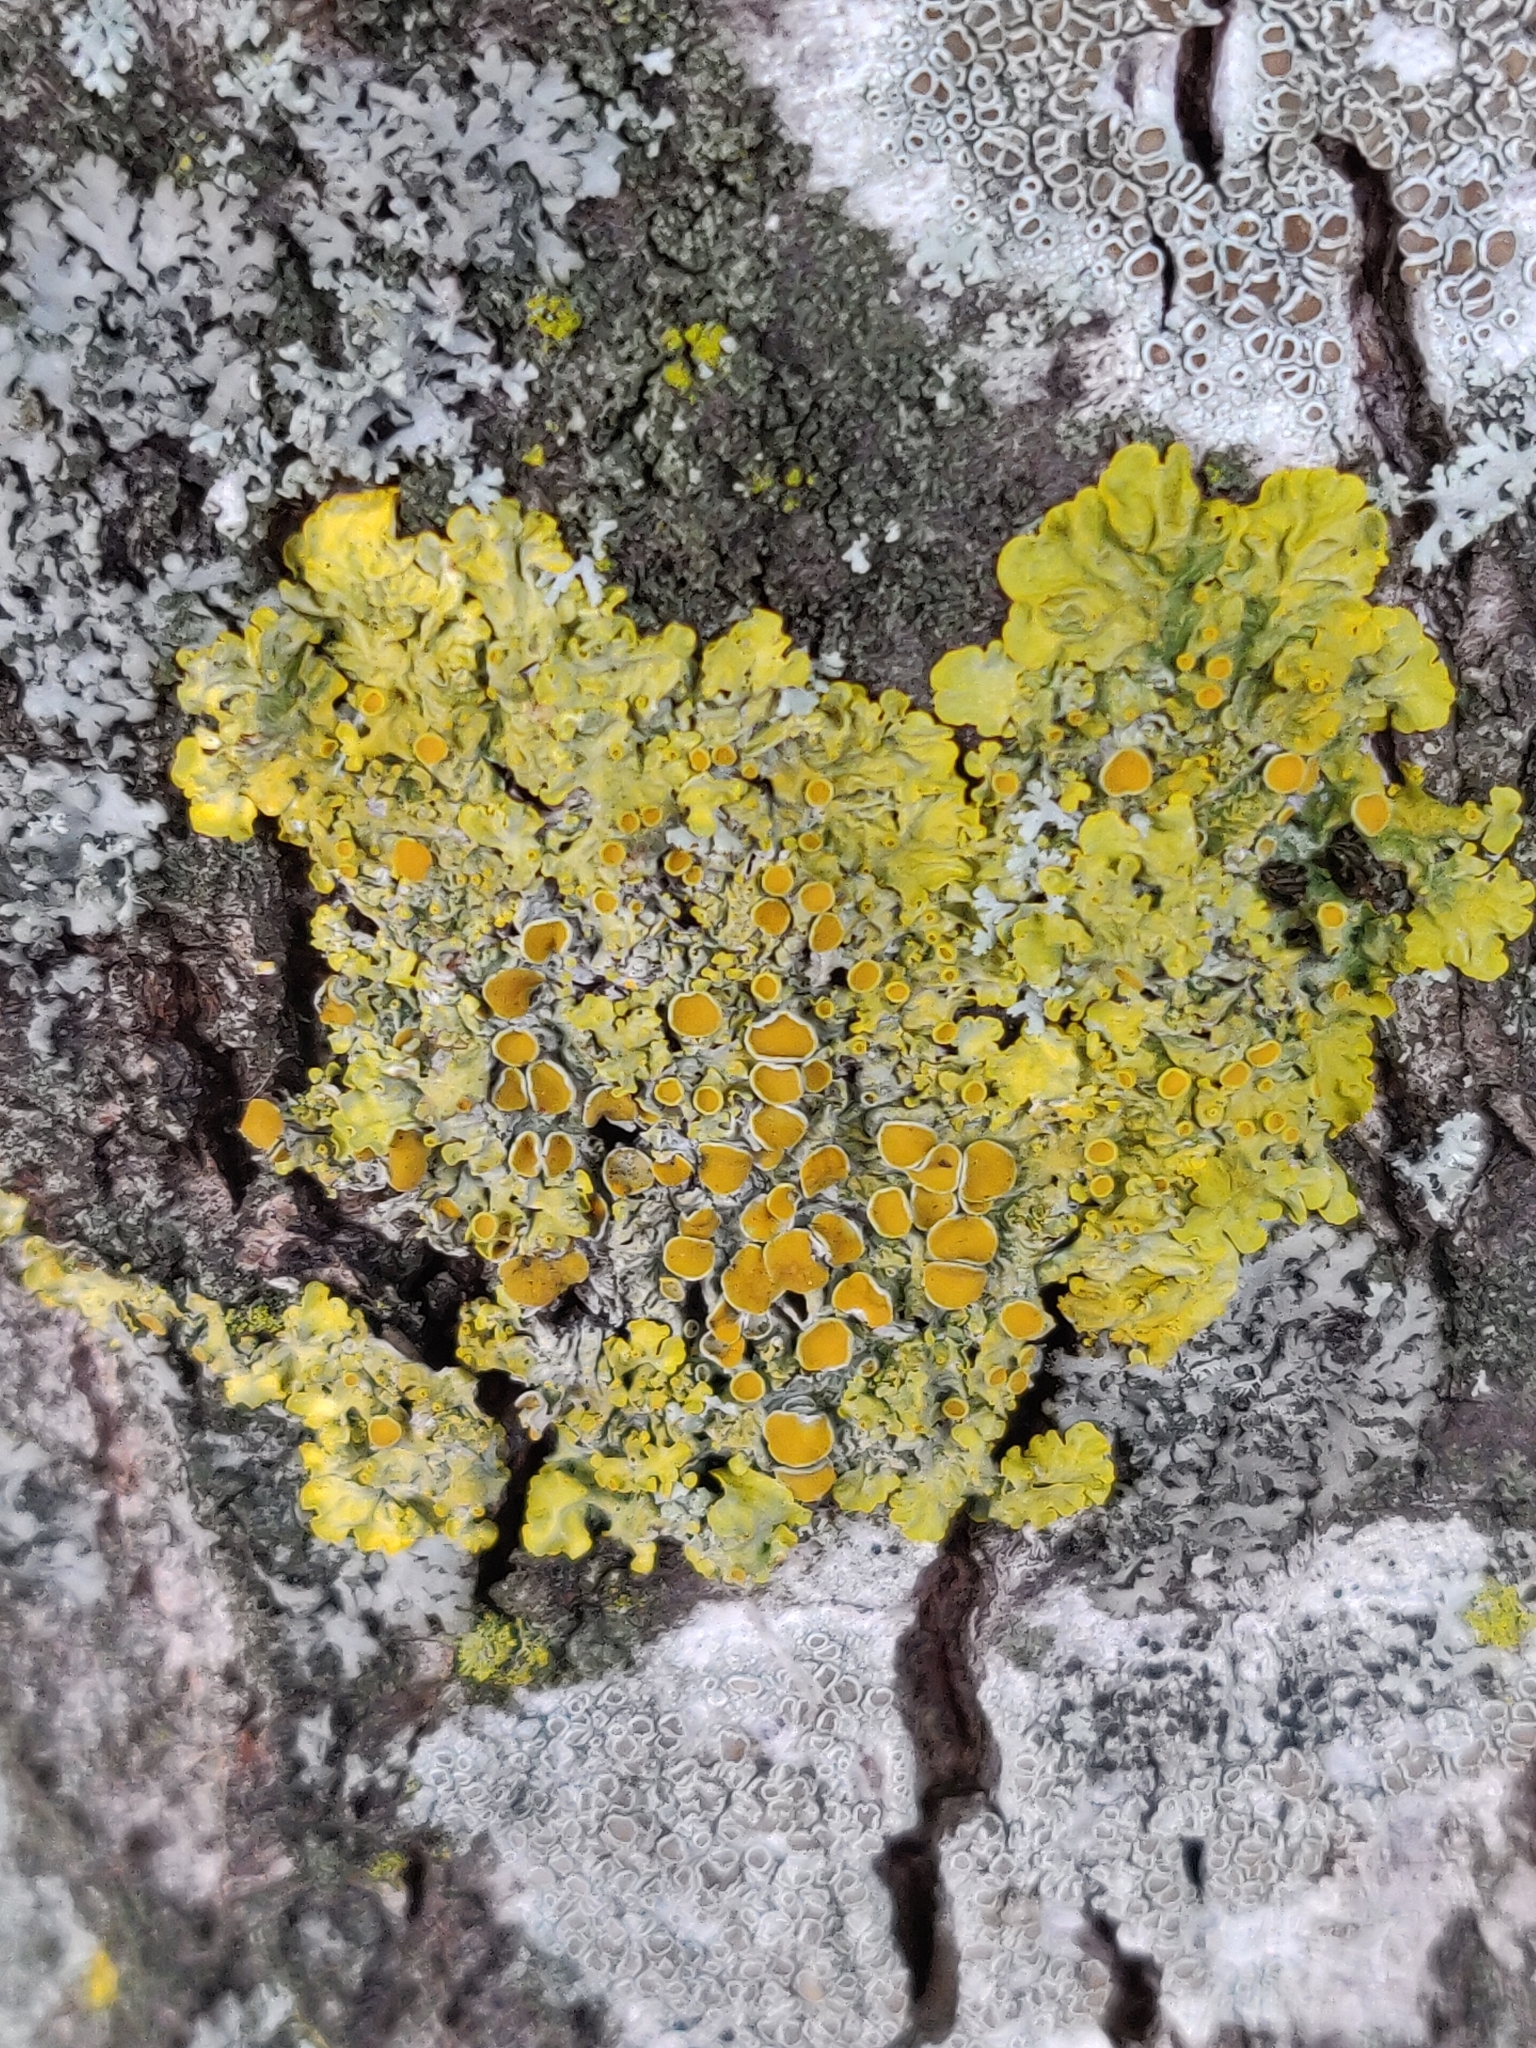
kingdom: Fungi
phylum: Ascomycota
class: Lecanoromycetes
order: Teloschistales
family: Teloschistaceae
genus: Xanthoria
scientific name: Xanthoria parietina
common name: Common orange lichen
